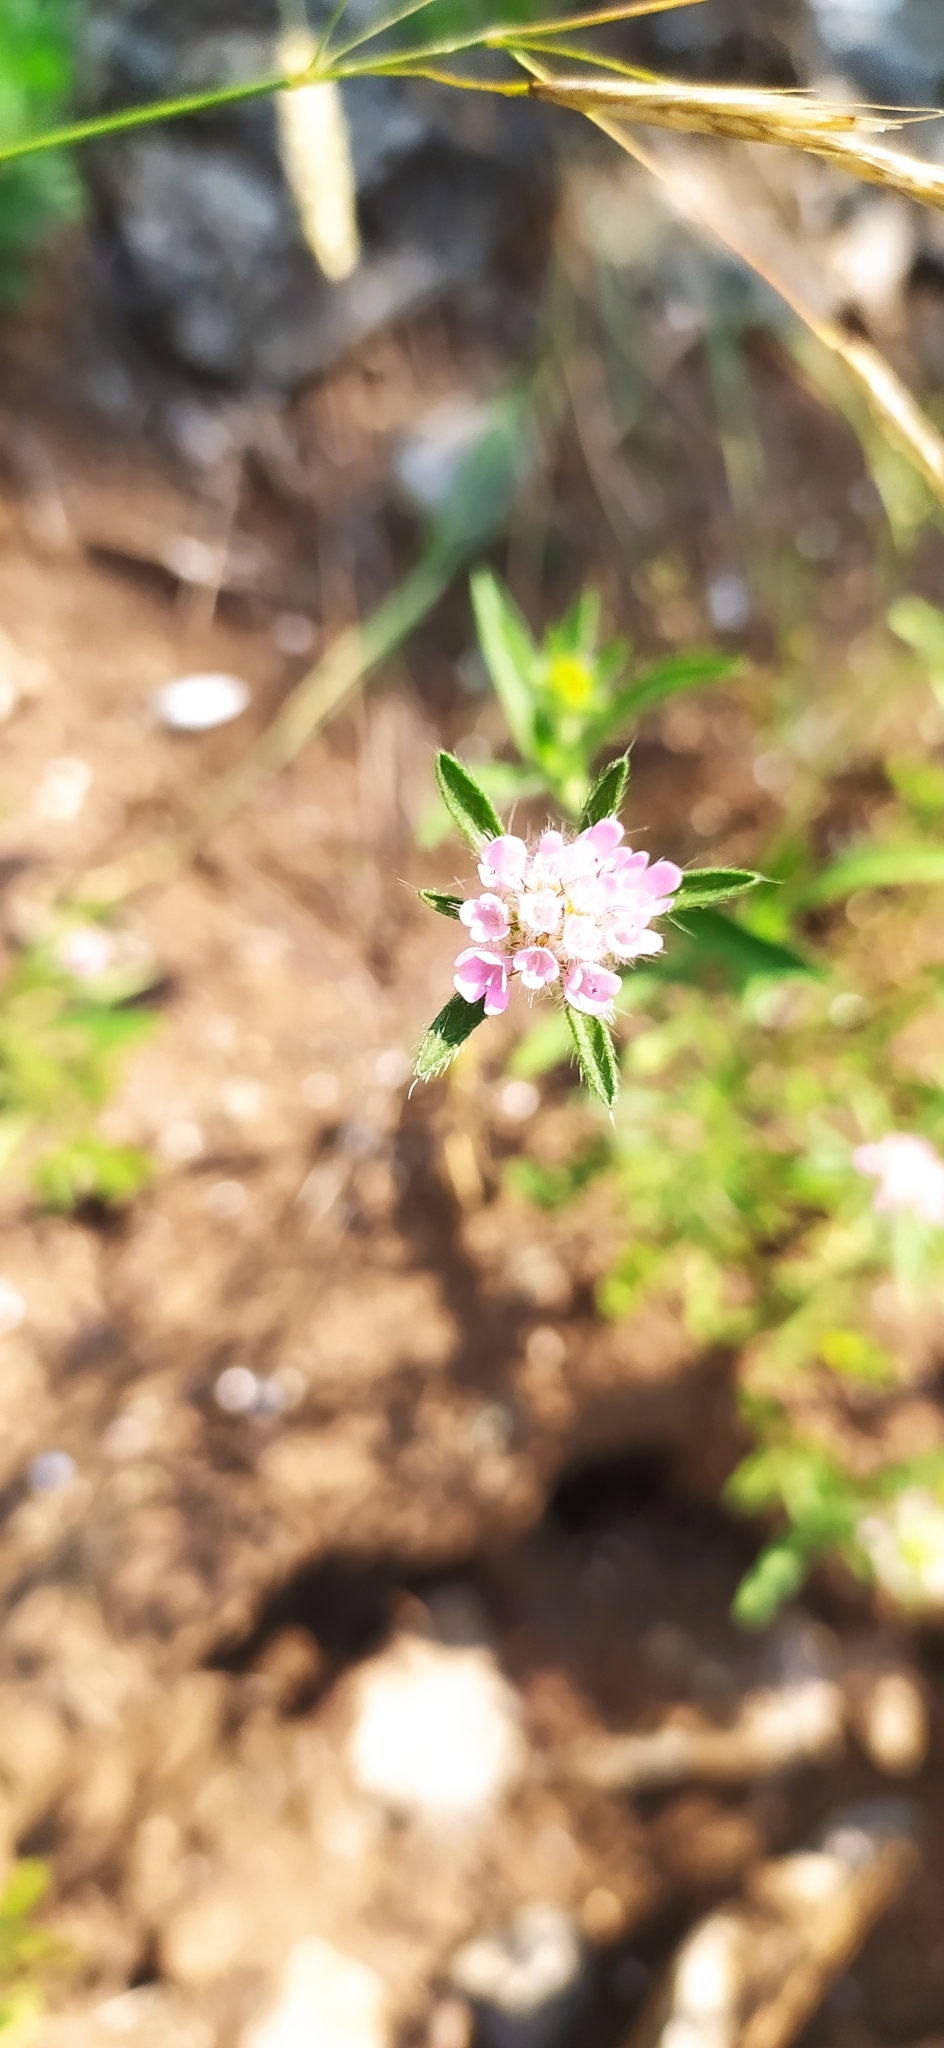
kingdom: Plantae
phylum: Tracheophyta
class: Magnoliopsida
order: Dipsacales
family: Caprifoliaceae
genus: Lomelosia
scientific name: Lomelosia micrantha
